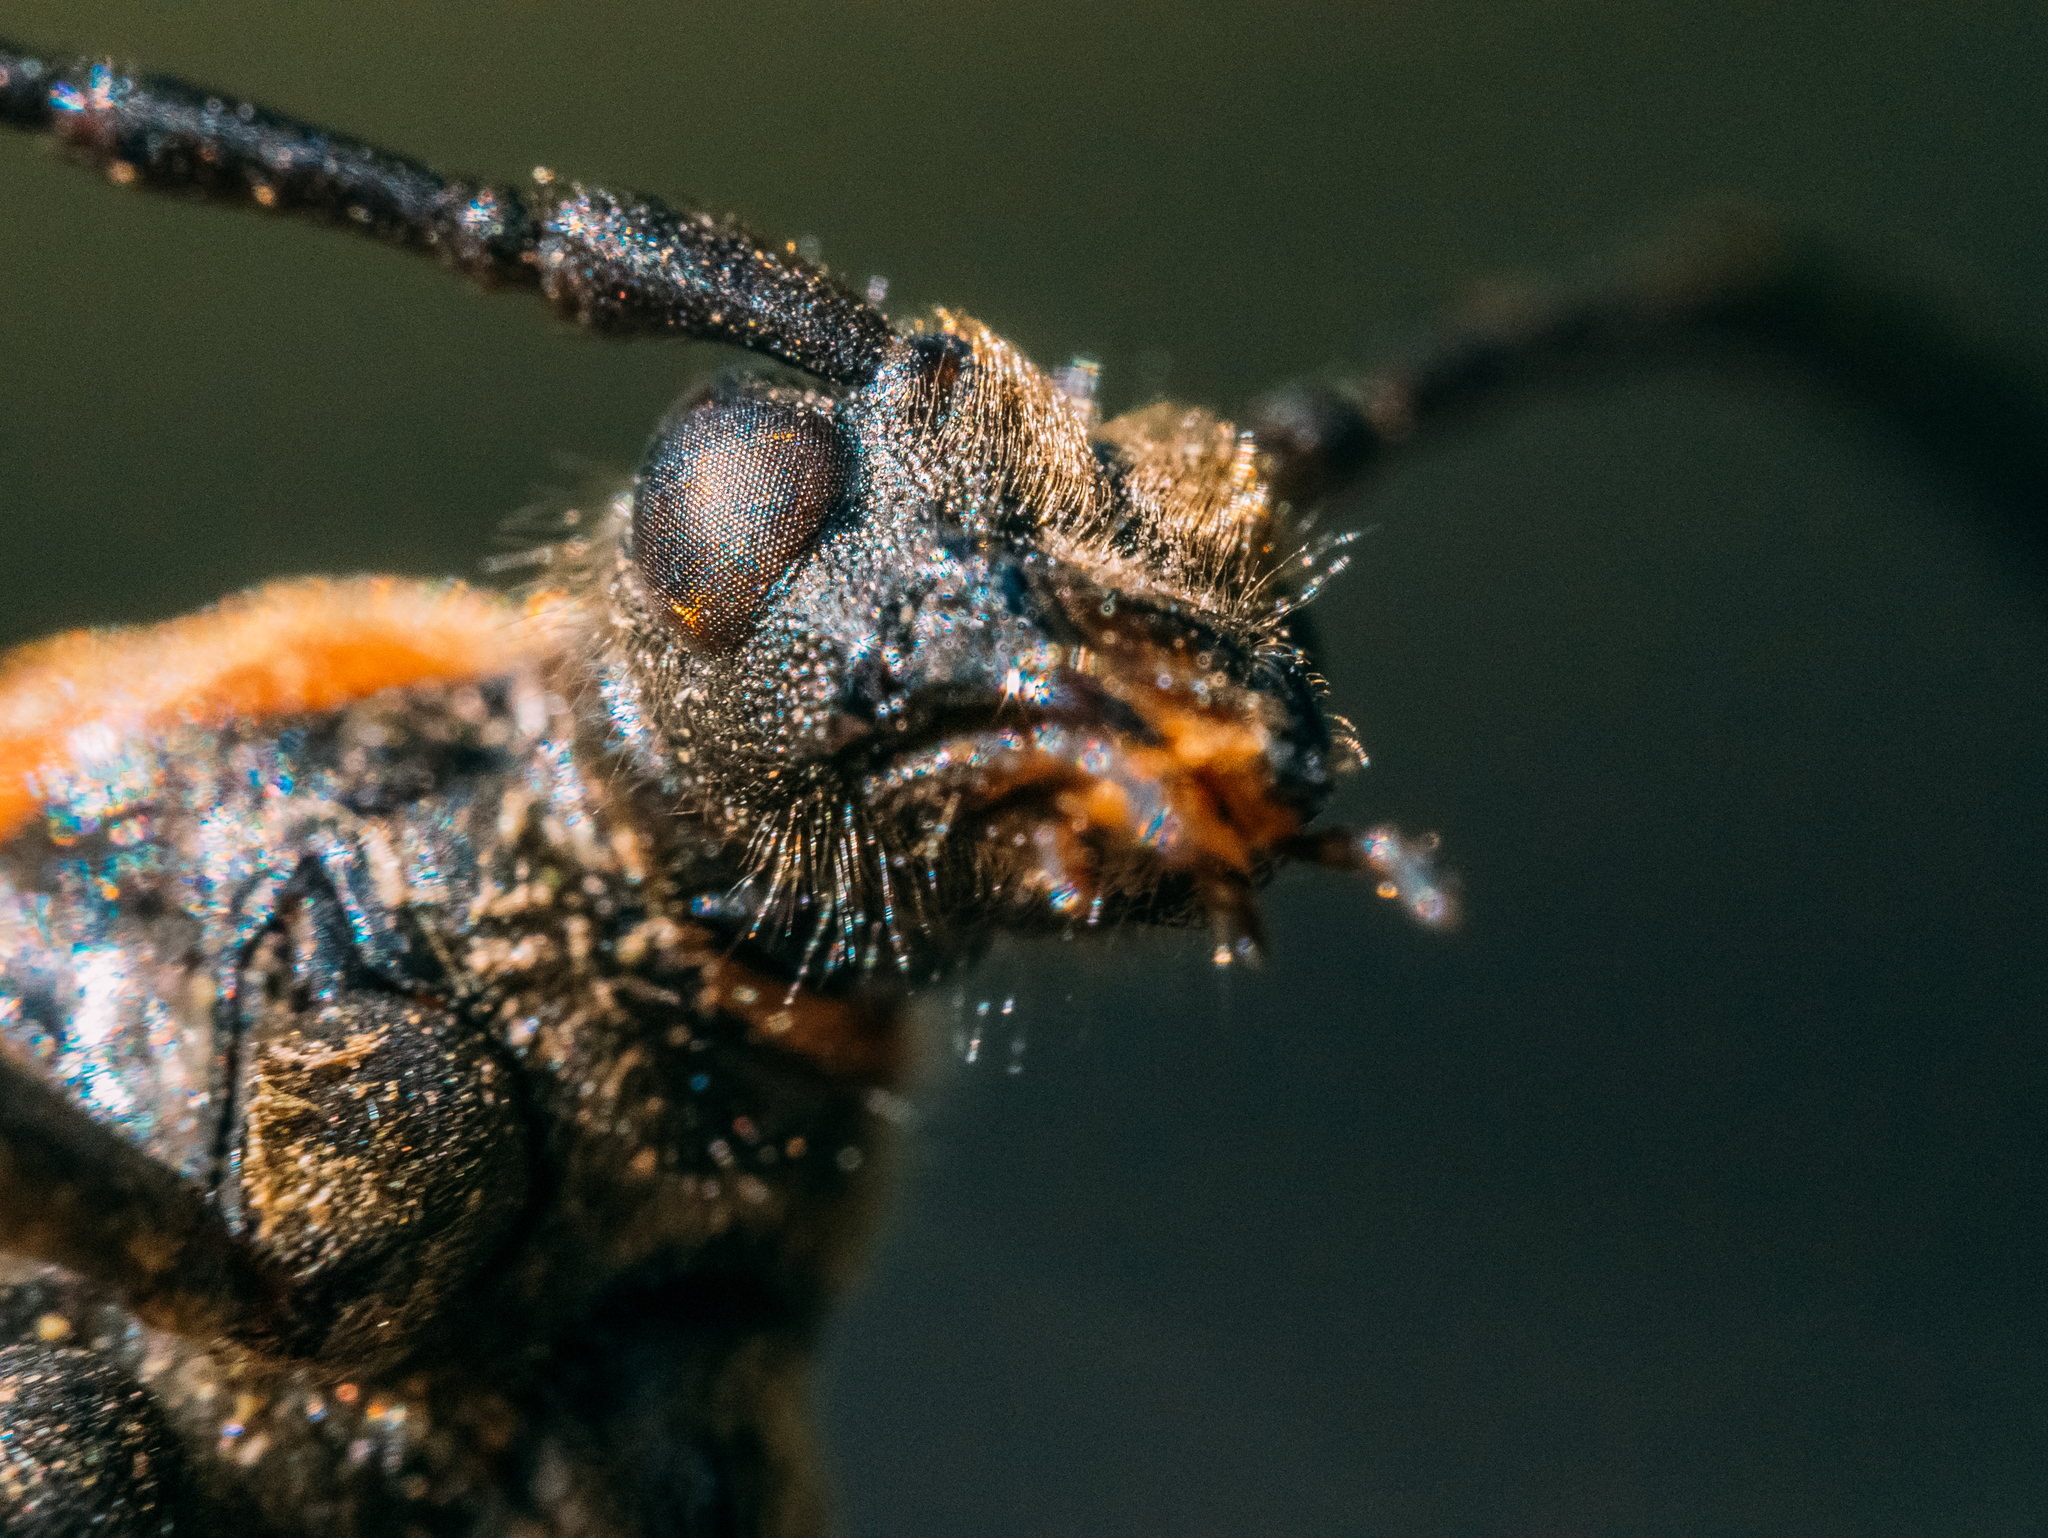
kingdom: Animalia
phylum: Arthropoda
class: Insecta
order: Coleoptera
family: Cerambycidae
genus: Stictoleptura
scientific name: Stictoleptura rubra
